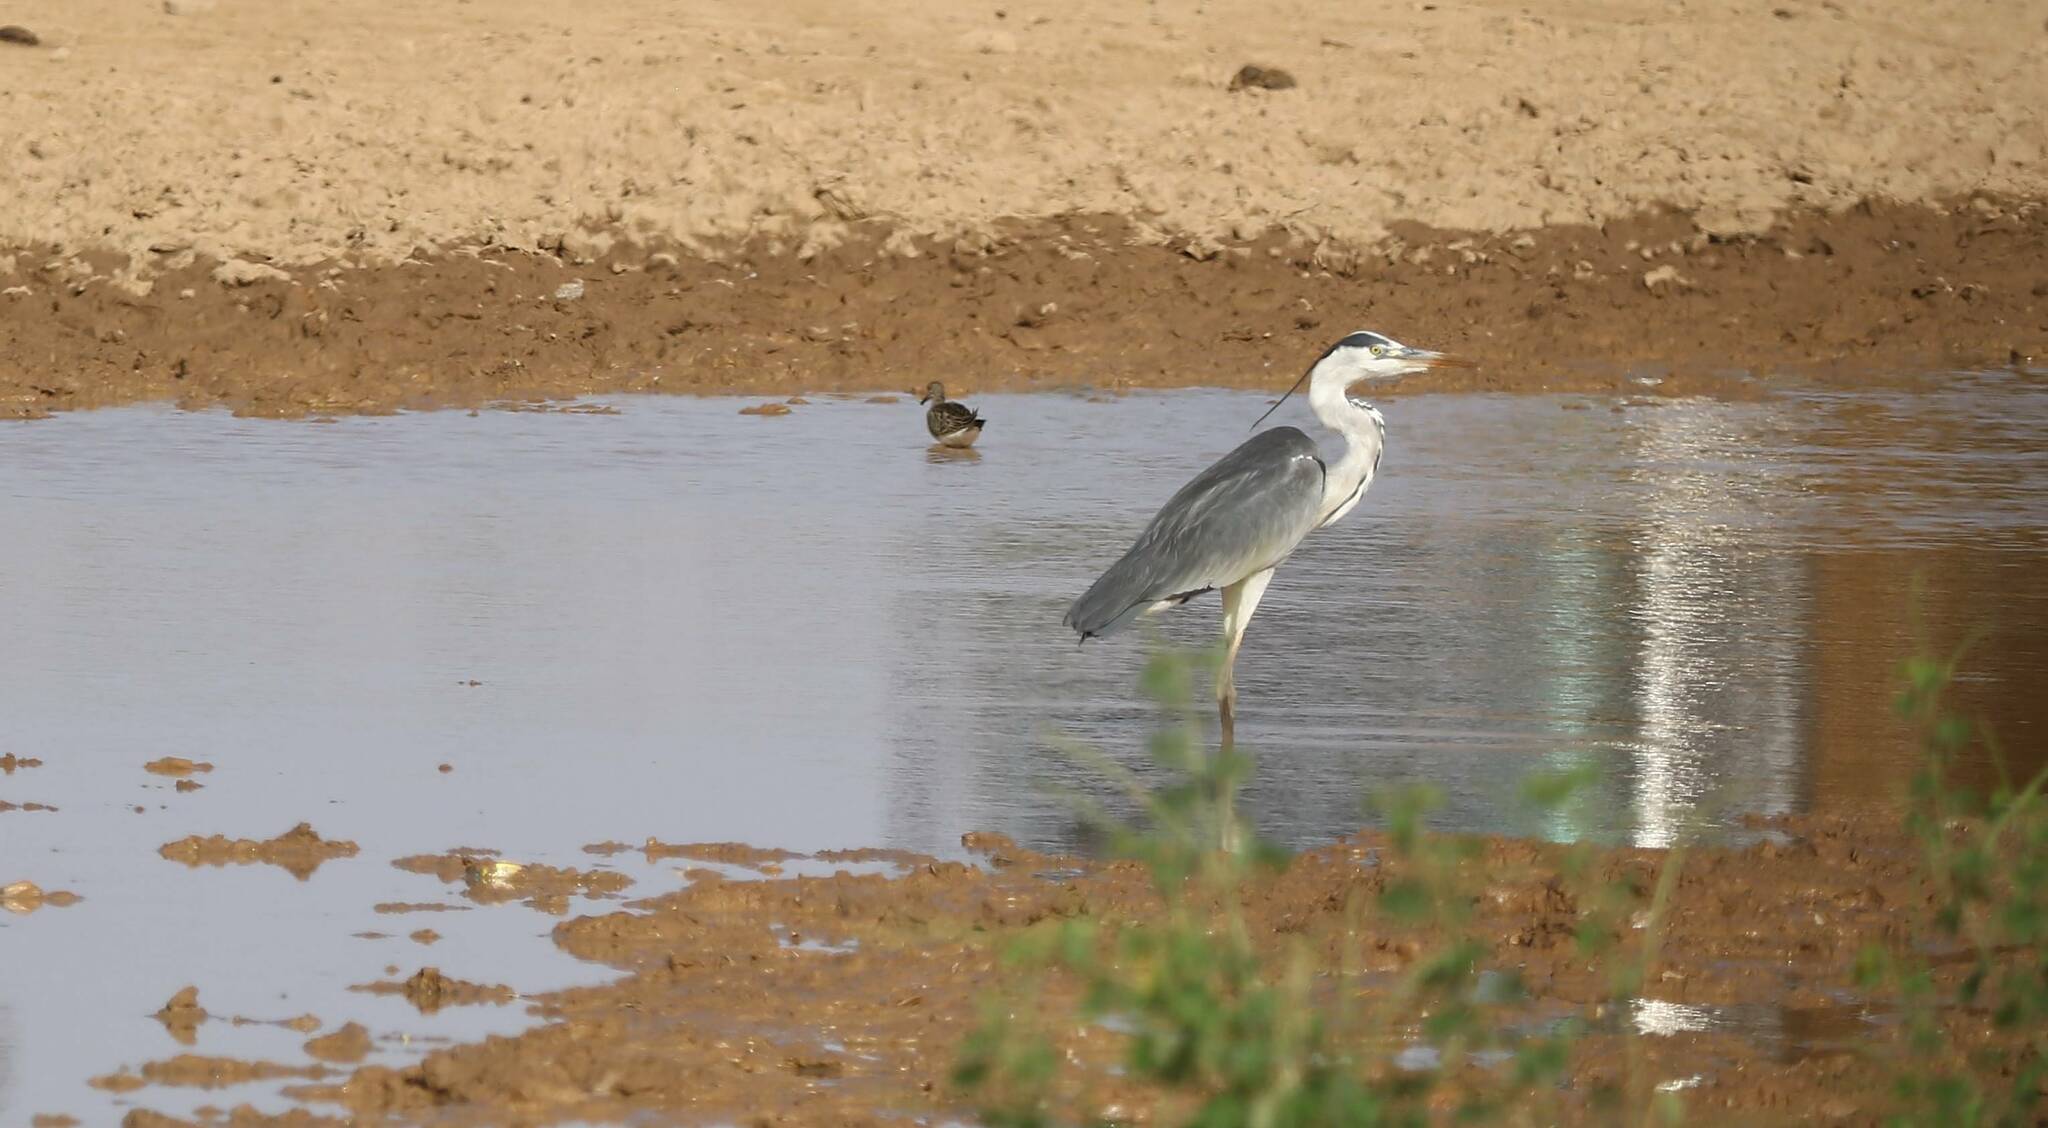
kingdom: Animalia
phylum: Chordata
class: Aves
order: Pelecaniformes
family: Ardeidae
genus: Ardea
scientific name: Ardea cinerea
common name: Grey heron
